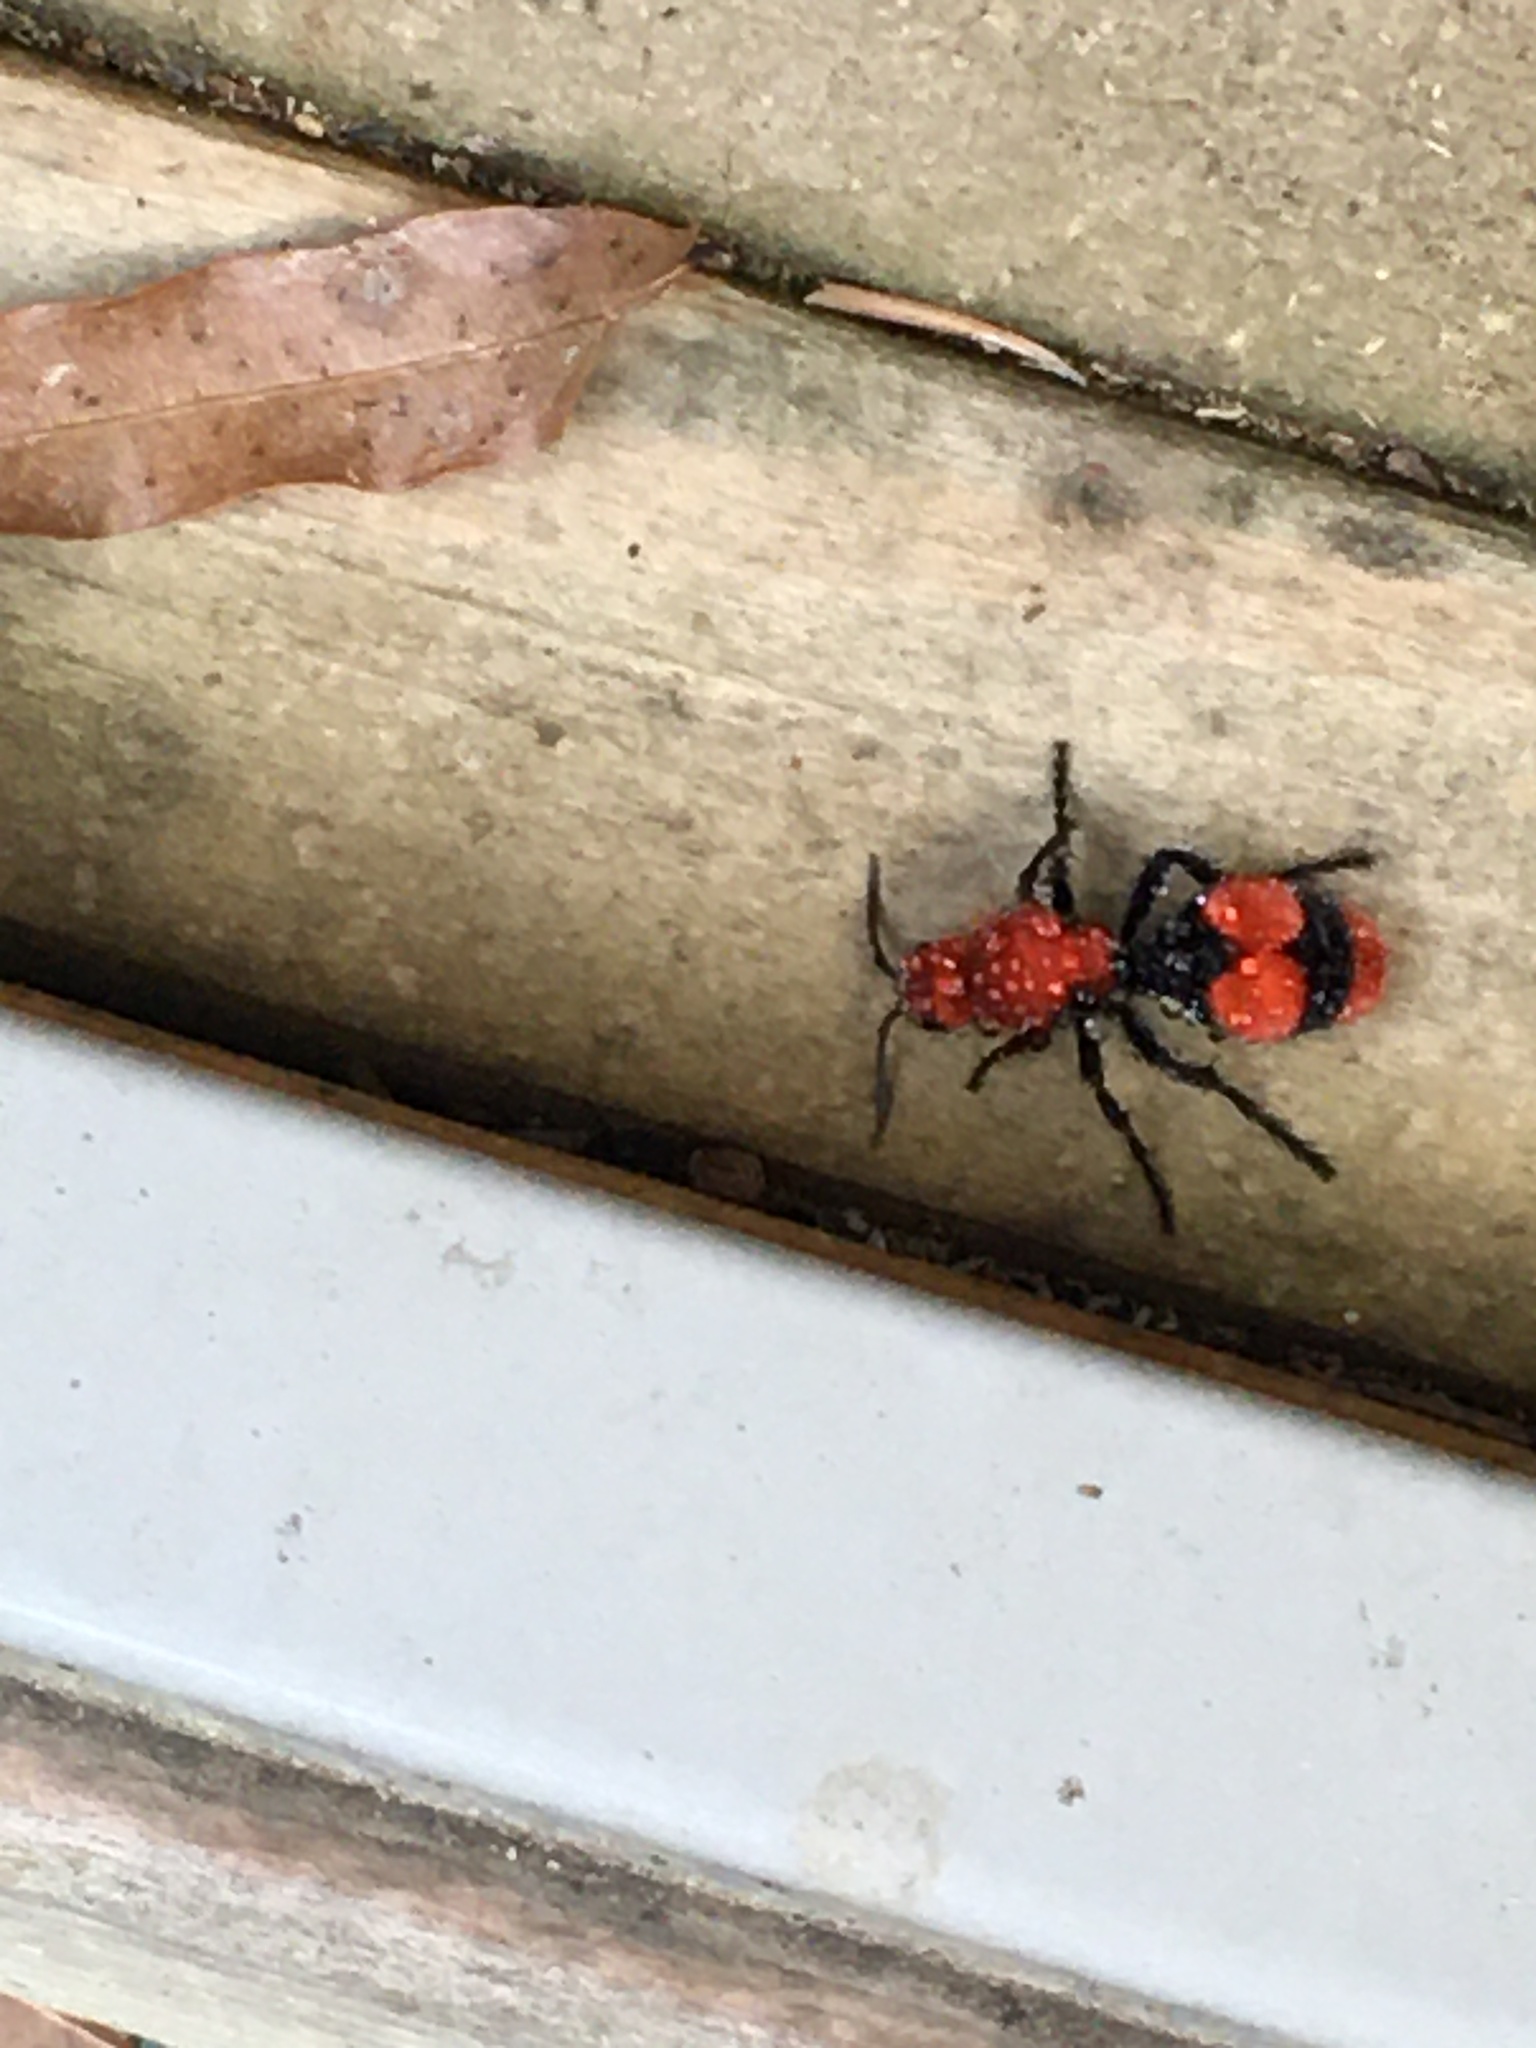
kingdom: Animalia
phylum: Arthropoda
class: Insecta
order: Hymenoptera
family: Mutillidae
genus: Dasymutilla
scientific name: Dasymutilla occidentalis
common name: Common eastern velvet ant
